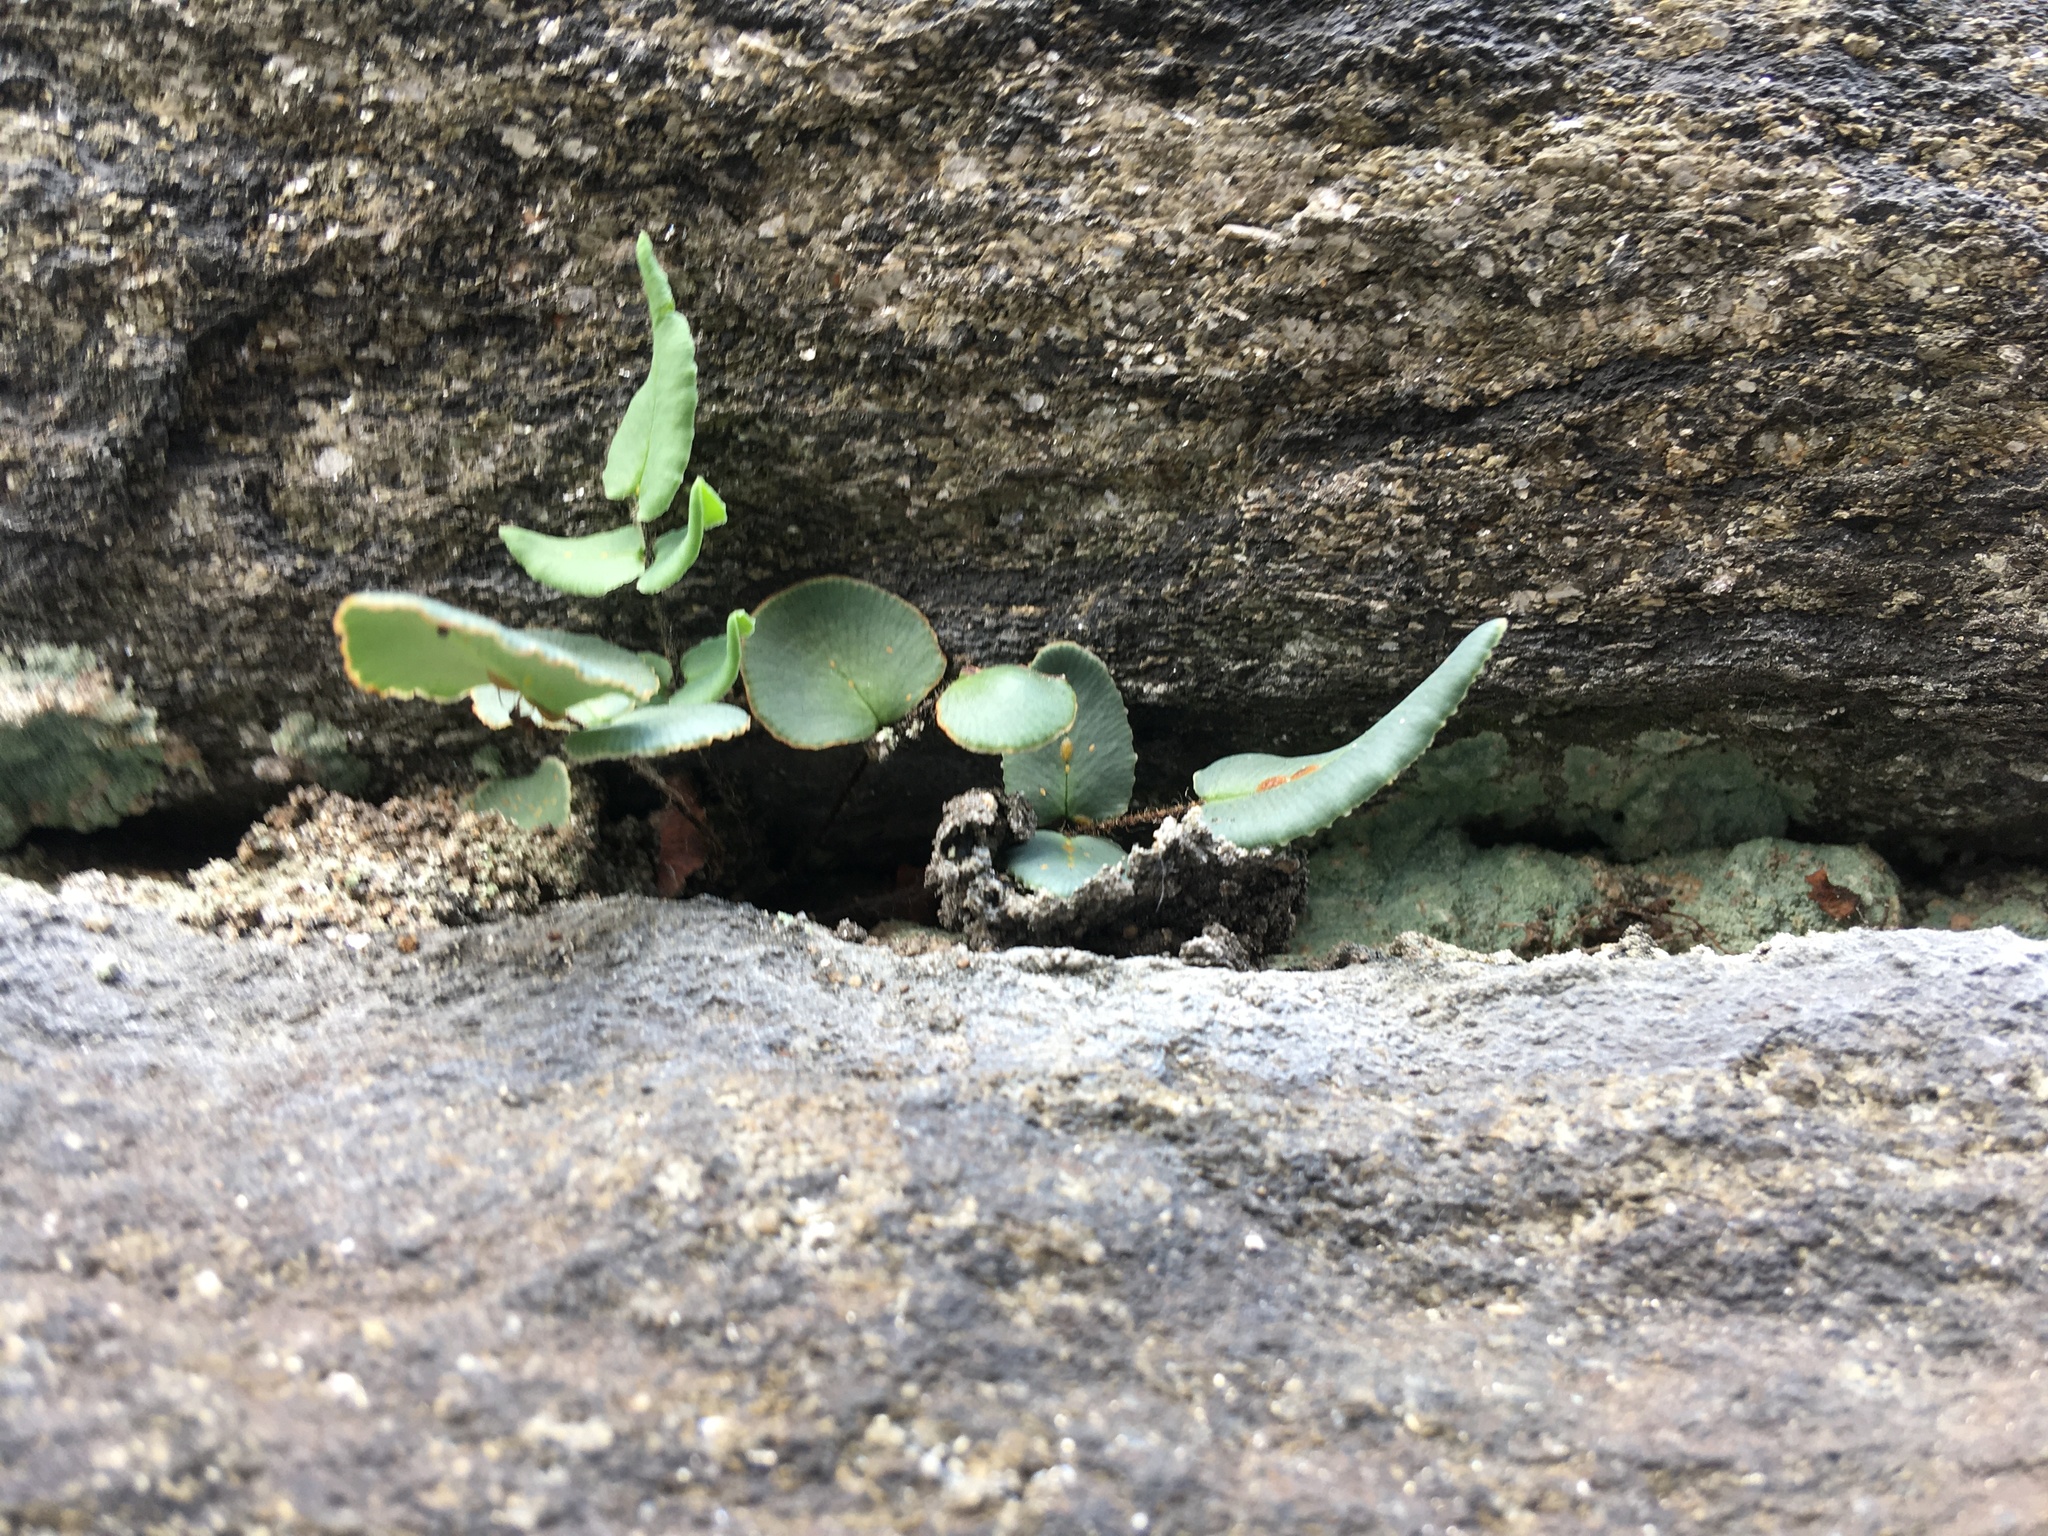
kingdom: Plantae
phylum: Tracheophyta
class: Polypodiopsida
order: Polypodiales
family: Pteridaceae
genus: Pellaea
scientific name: Pellaea atropurpurea
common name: Hairy cliffbrake
